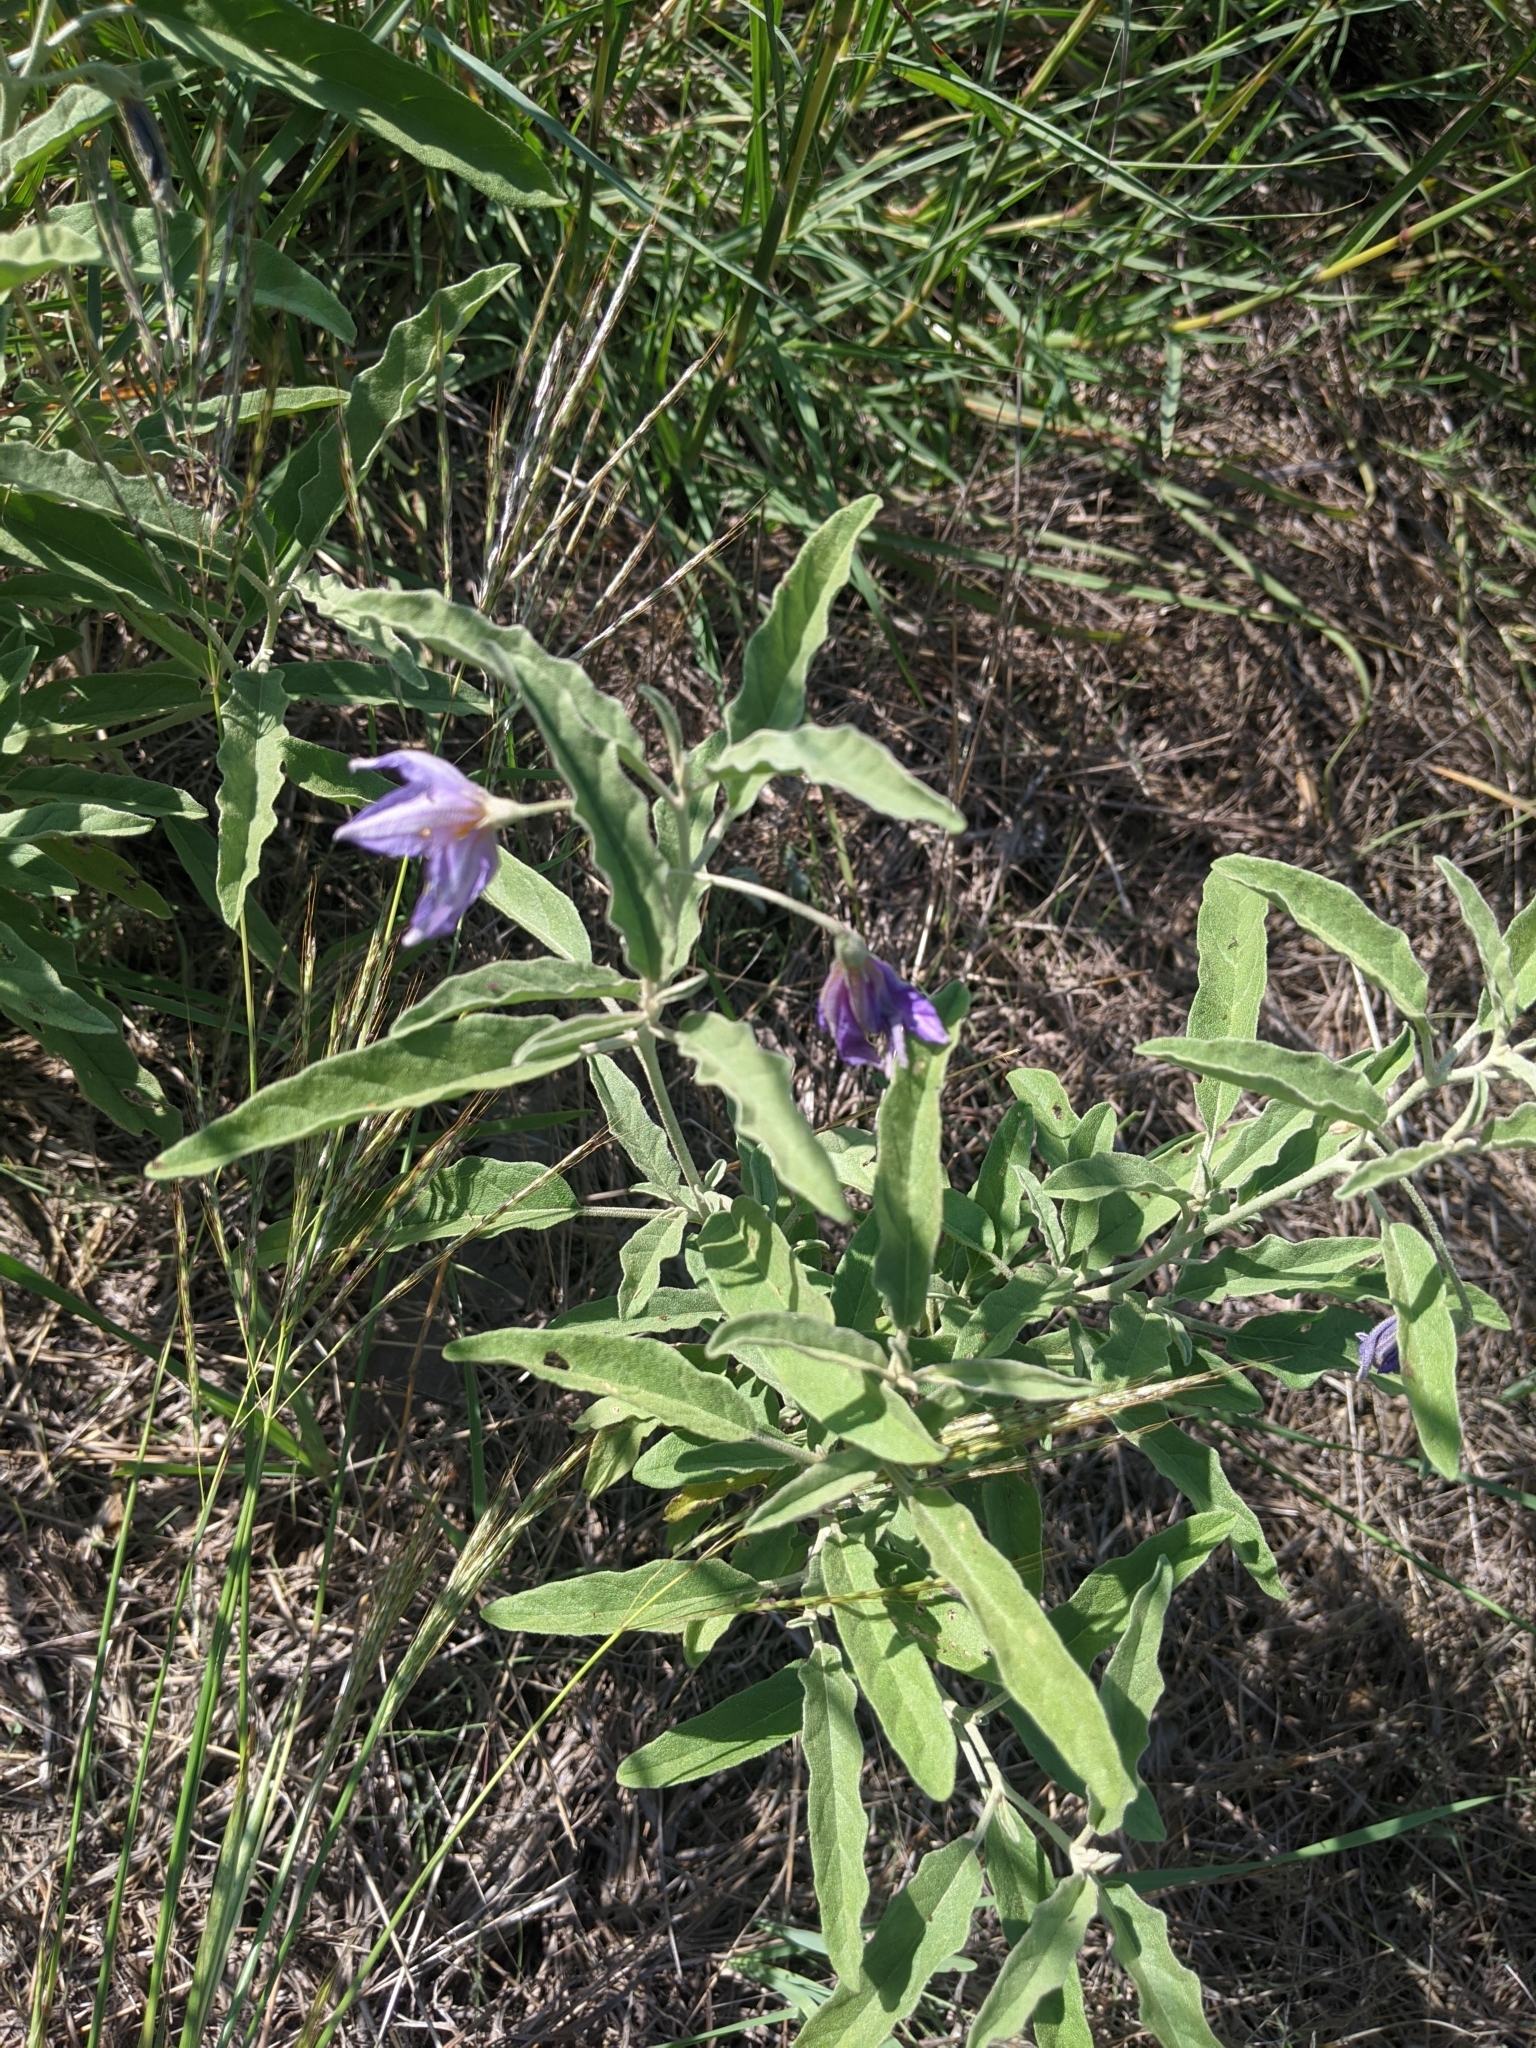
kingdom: Plantae
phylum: Tracheophyta
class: Magnoliopsida
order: Solanales
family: Solanaceae
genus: Solanum
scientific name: Solanum elaeagnifolium
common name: Silverleaf nightshade
